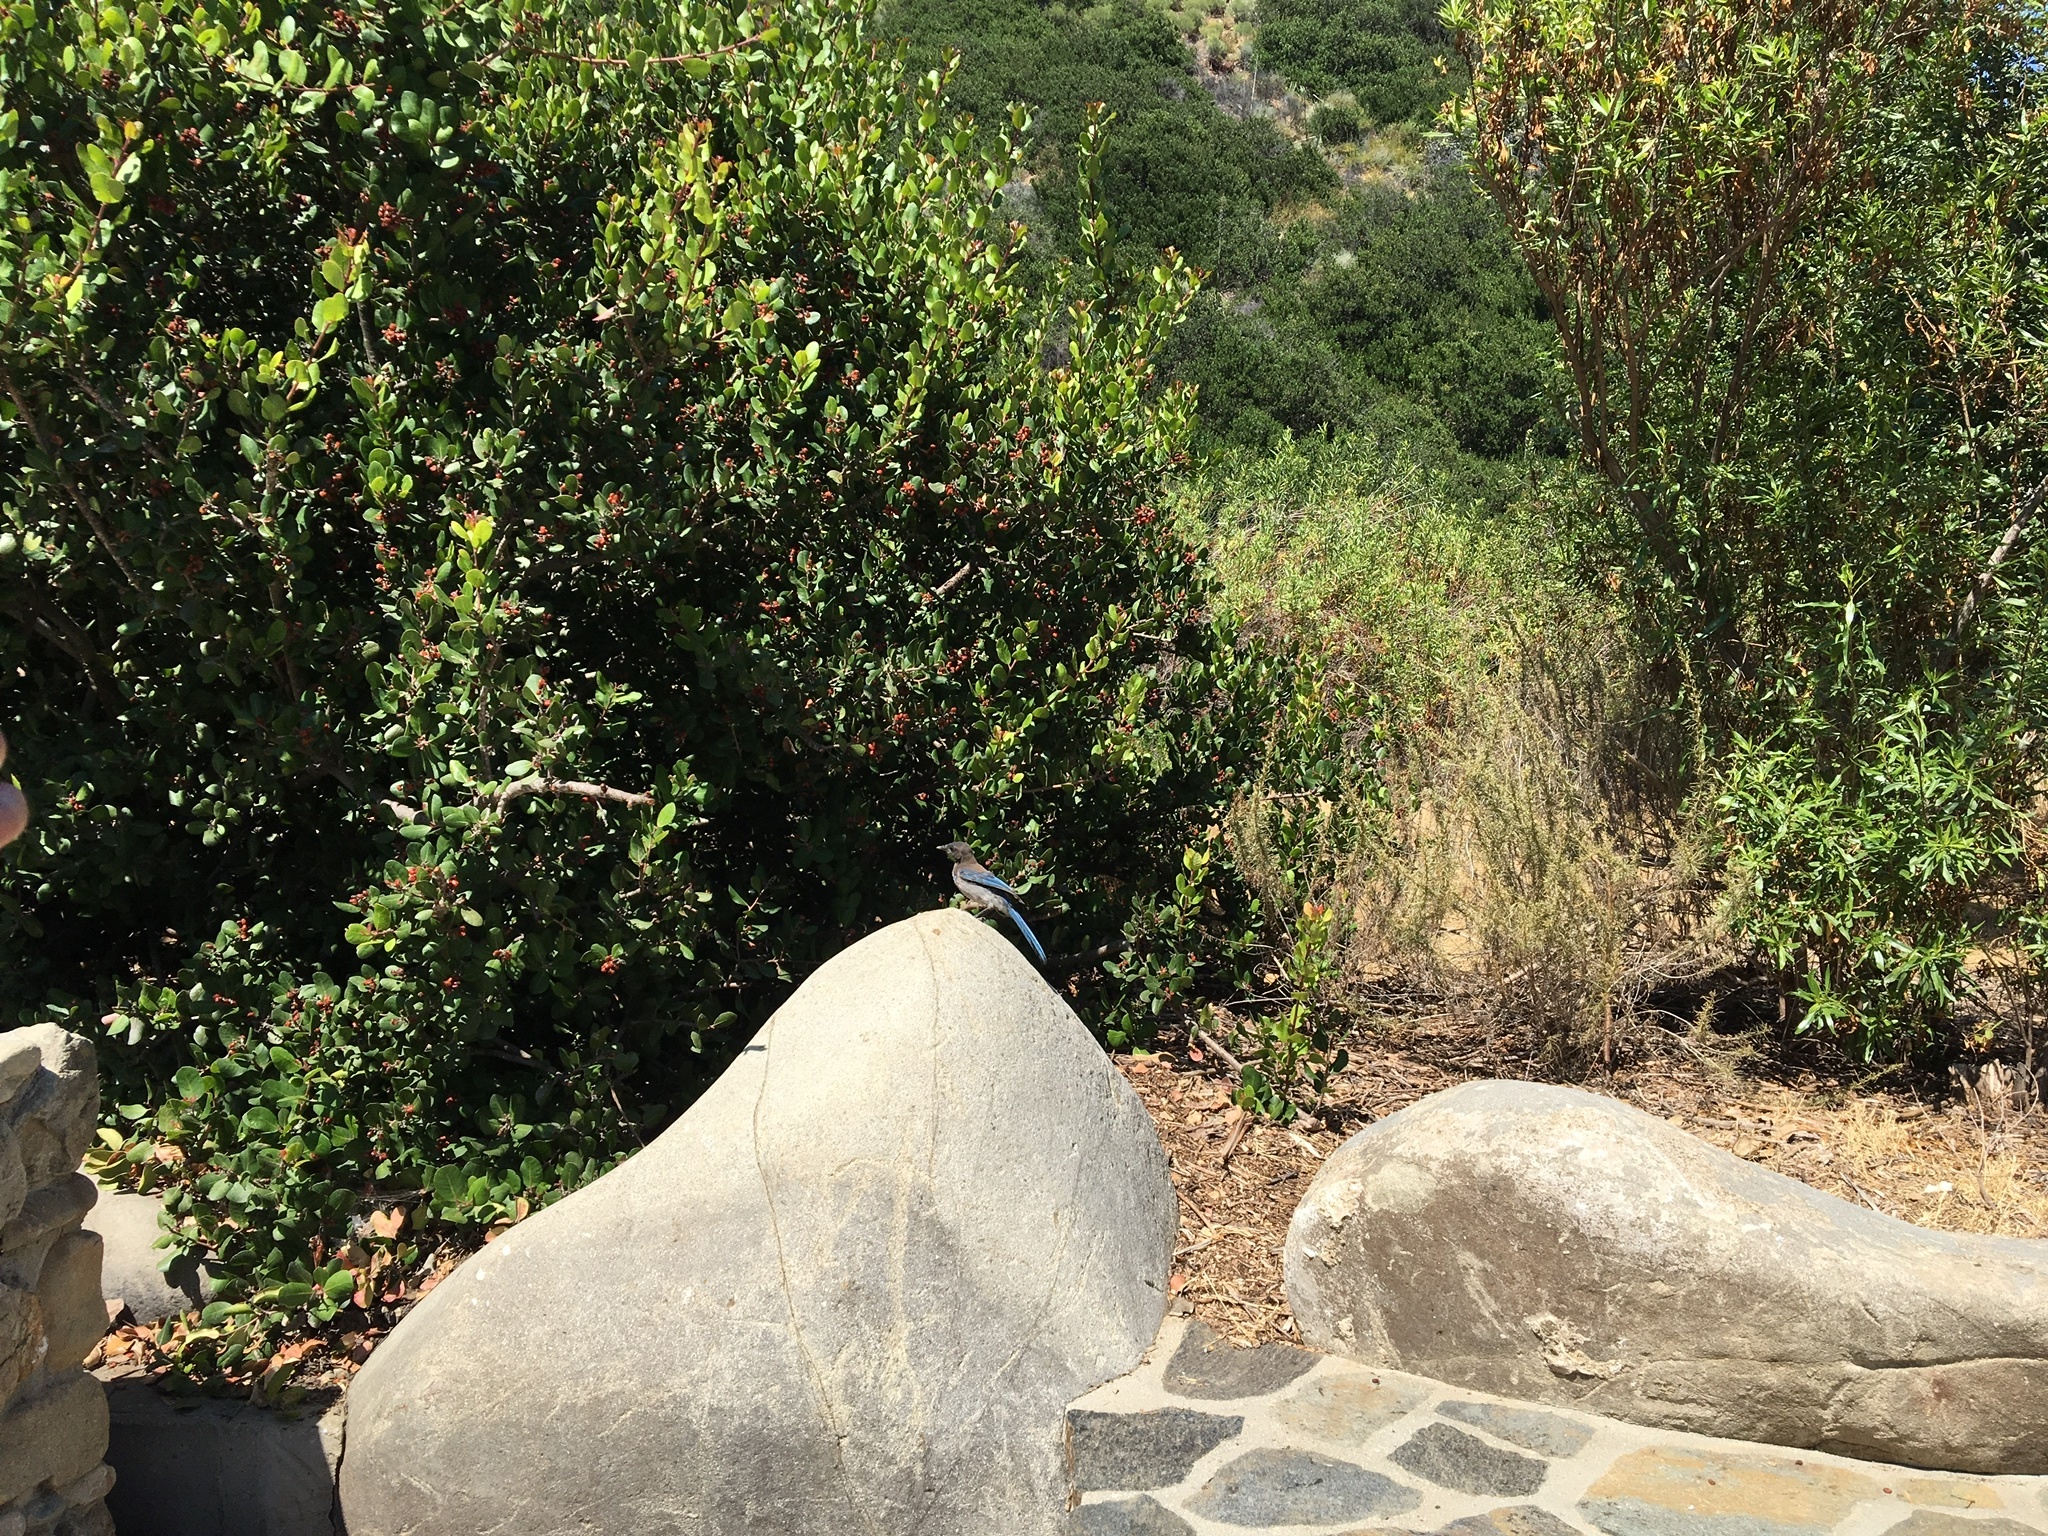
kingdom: Animalia
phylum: Chordata
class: Aves
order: Passeriformes
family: Corvidae
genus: Aphelocoma
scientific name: Aphelocoma californica
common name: California scrub-jay
